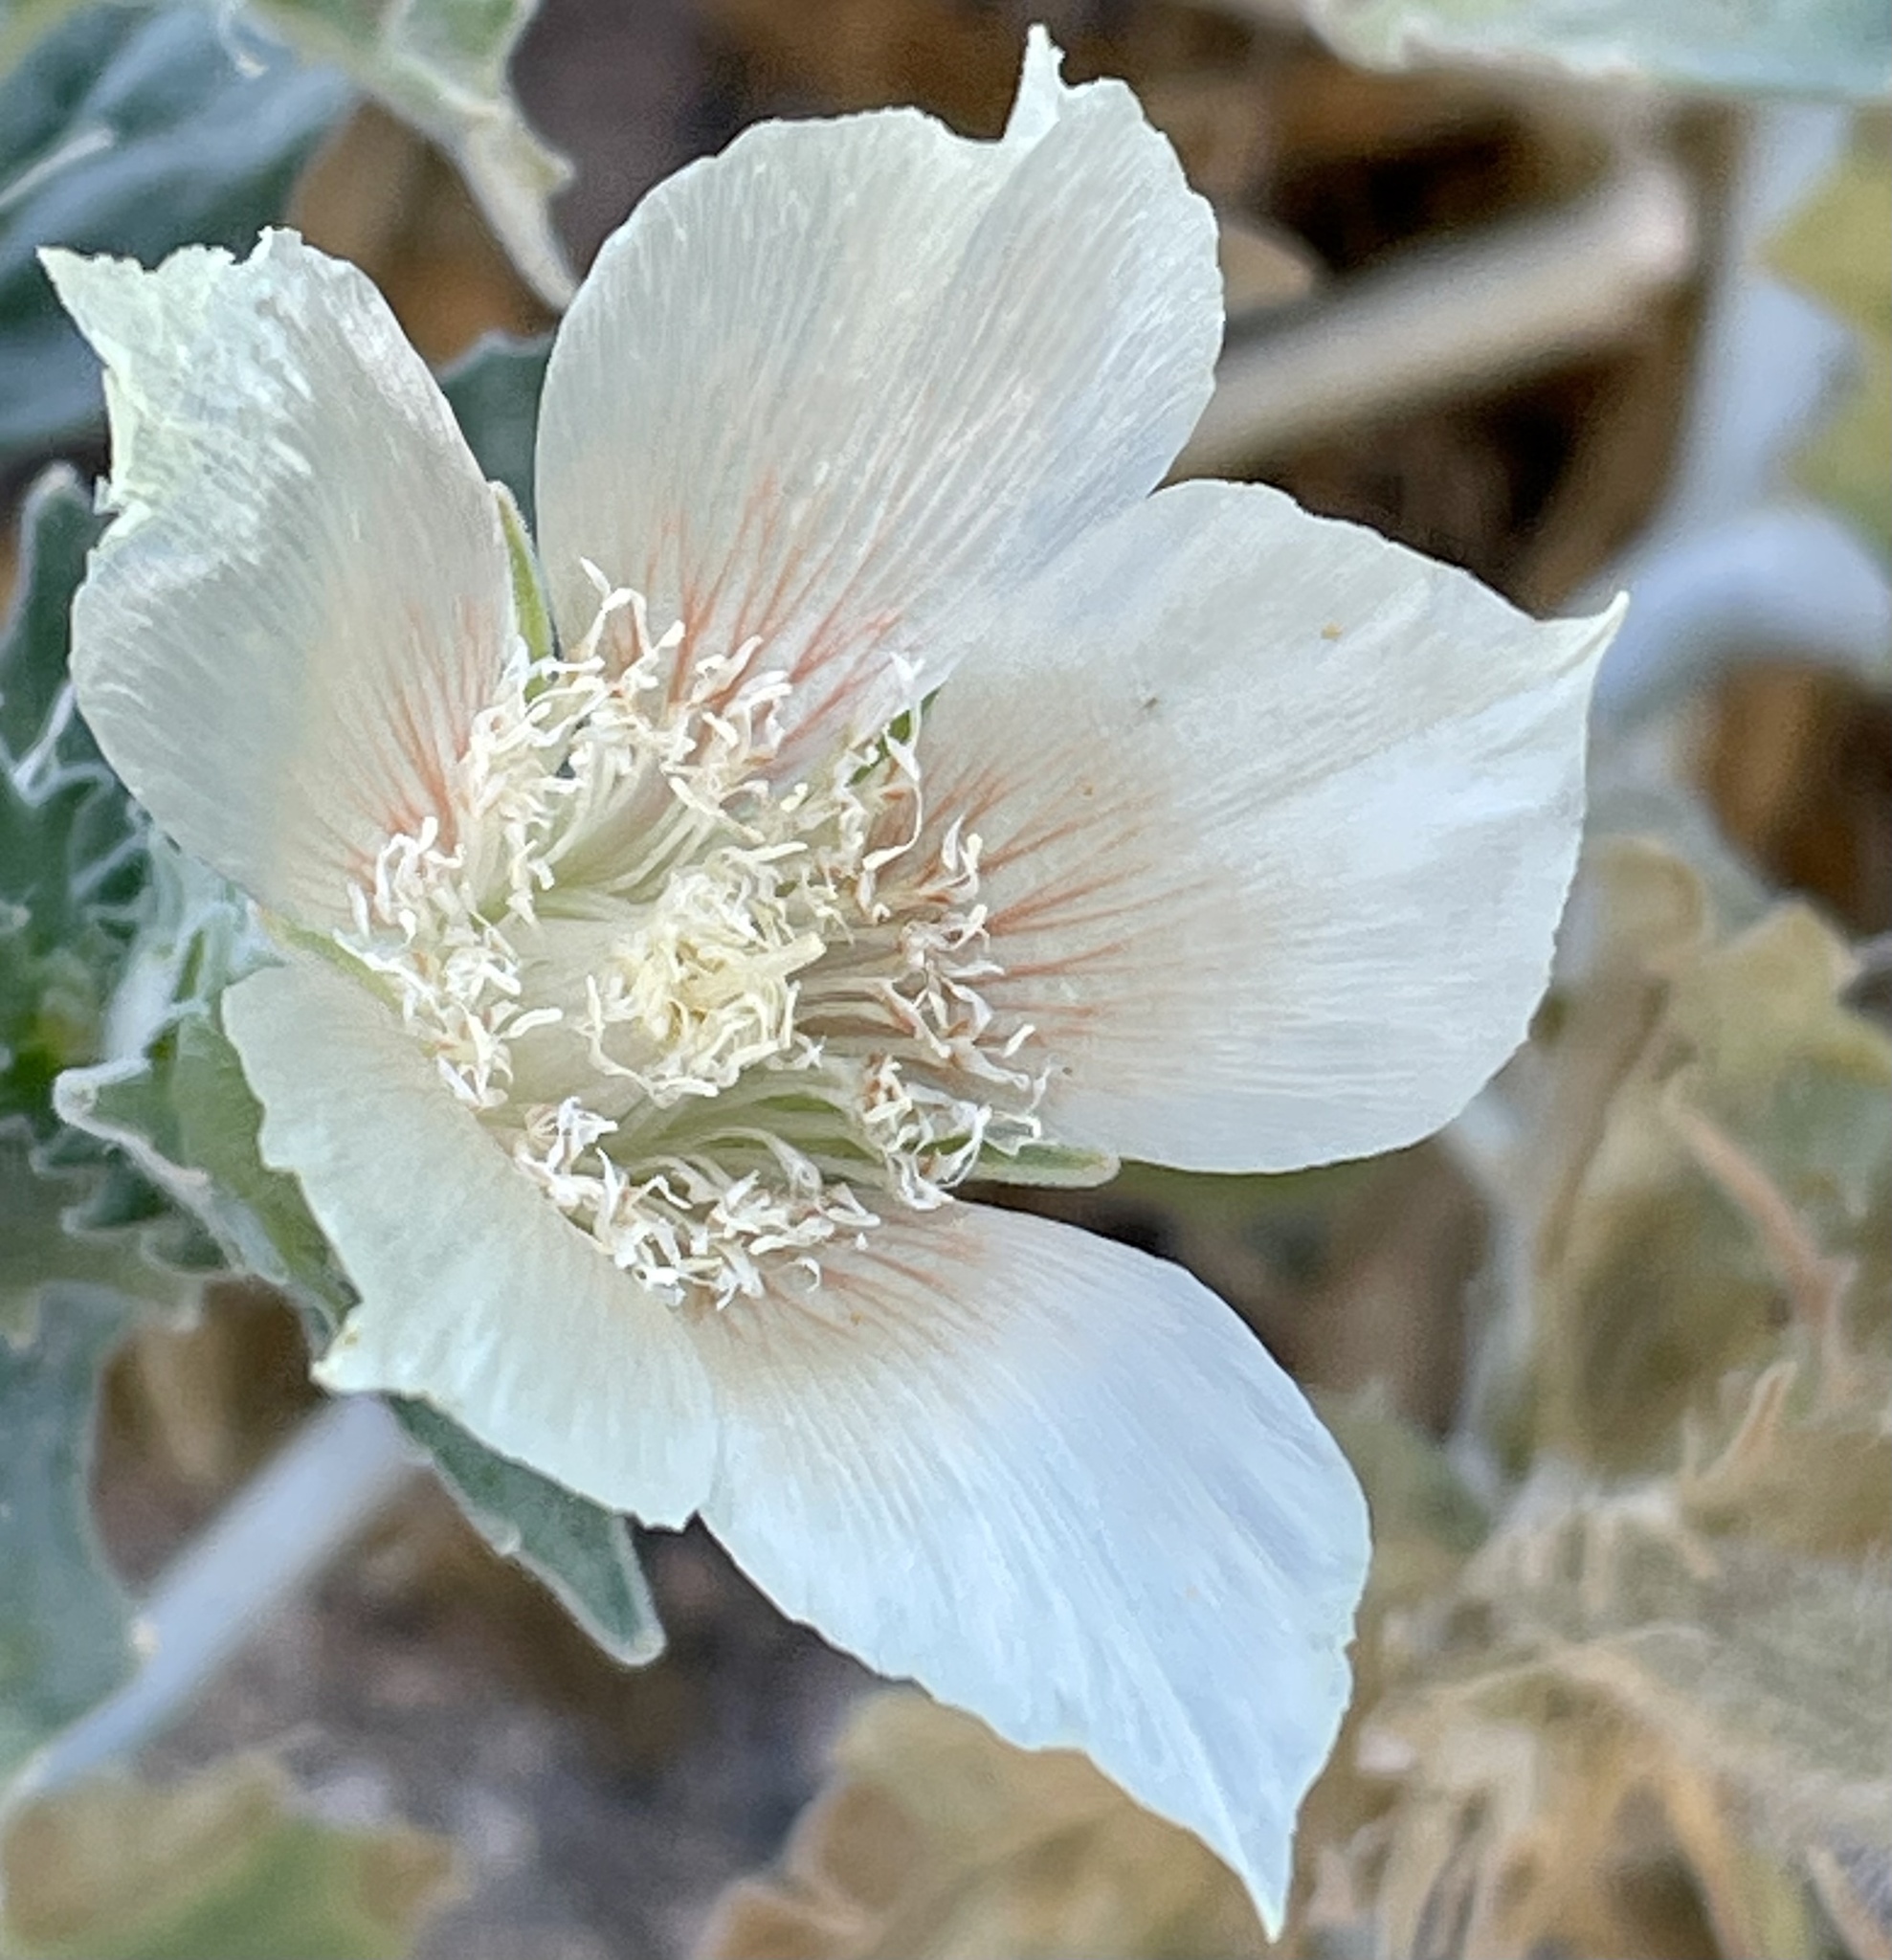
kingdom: Plantae
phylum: Tracheophyta
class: Magnoliopsida
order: Cornales
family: Loasaceae
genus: Mentzelia
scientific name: Mentzelia involucrata
